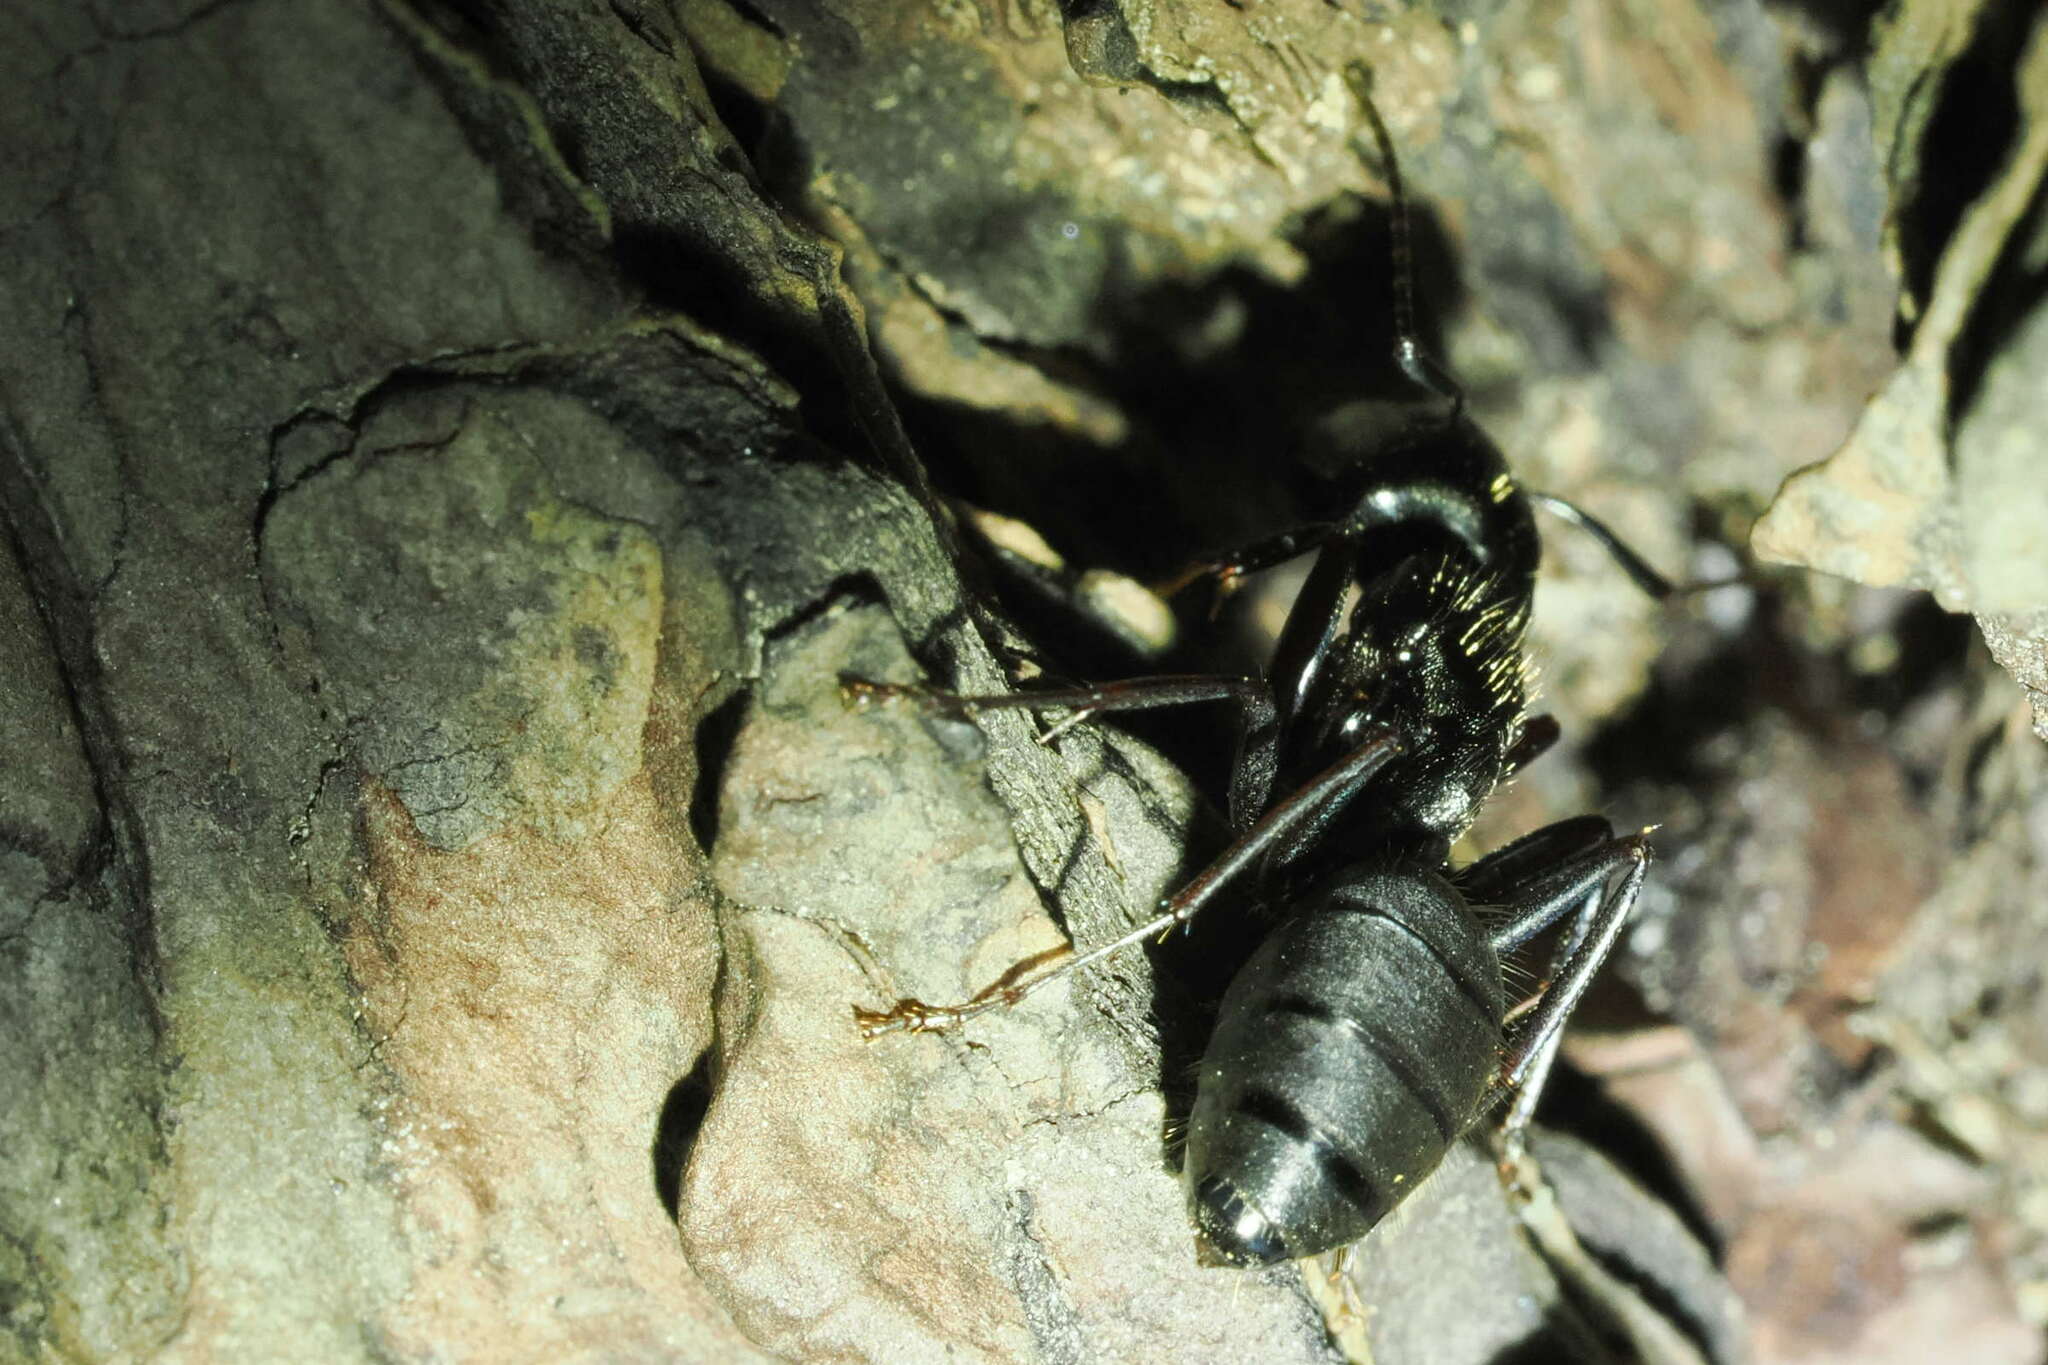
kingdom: Animalia
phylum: Arthropoda
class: Insecta
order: Hymenoptera
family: Formicidae
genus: Camponotus
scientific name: Camponotus pennsylvanicus
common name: Black carpenter ant
